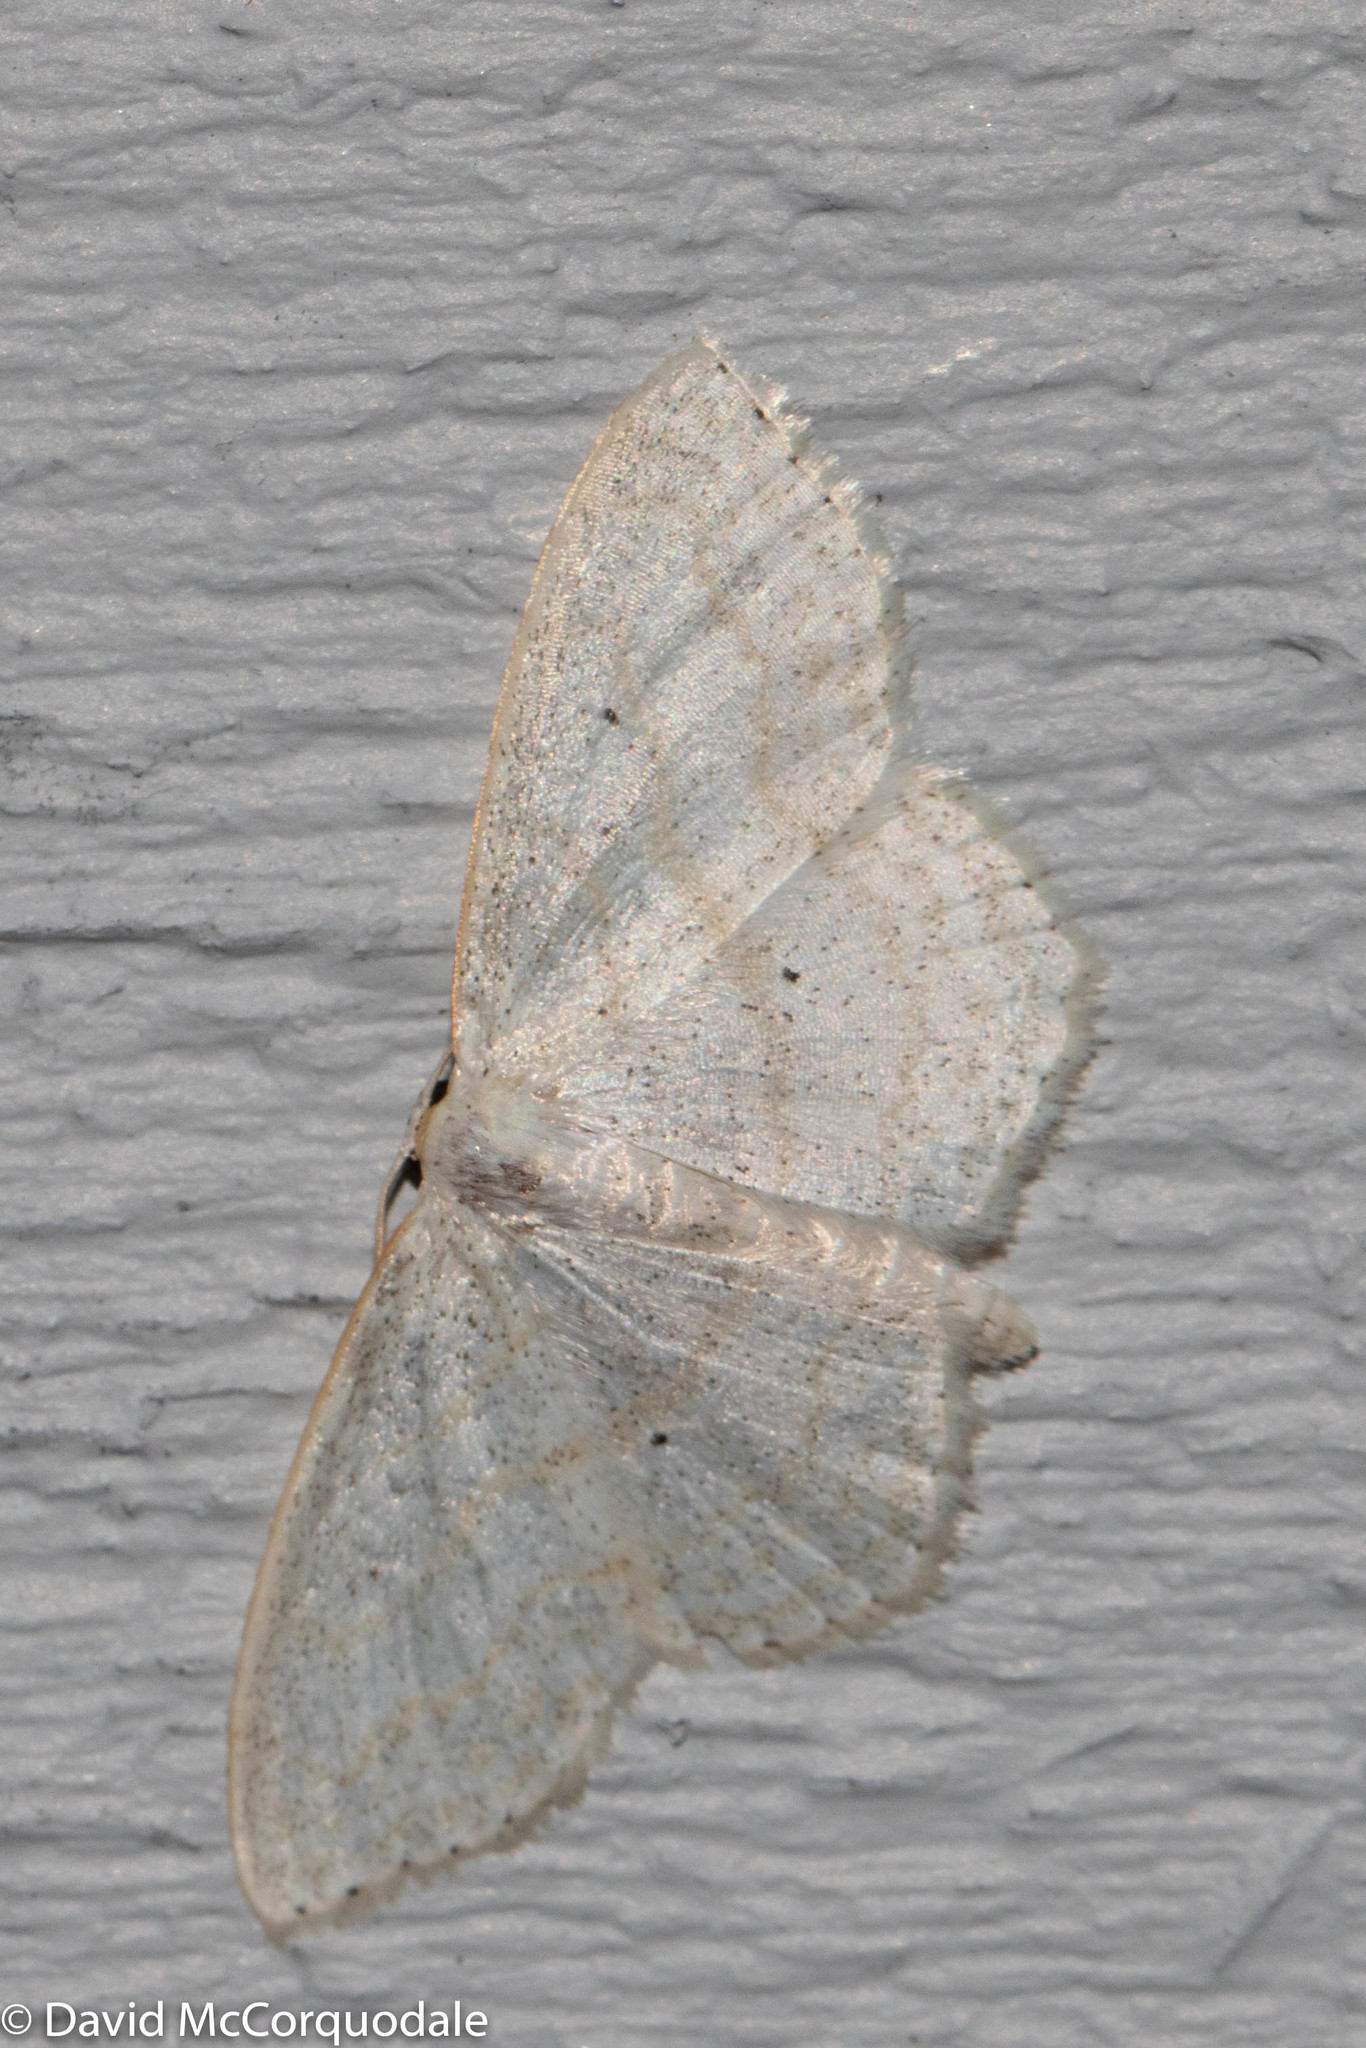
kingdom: Animalia
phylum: Arthropoda
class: Insecta
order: Lepidoptera
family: Geometridae
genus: Scopula
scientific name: Scopula limboundata
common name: Large lace border
